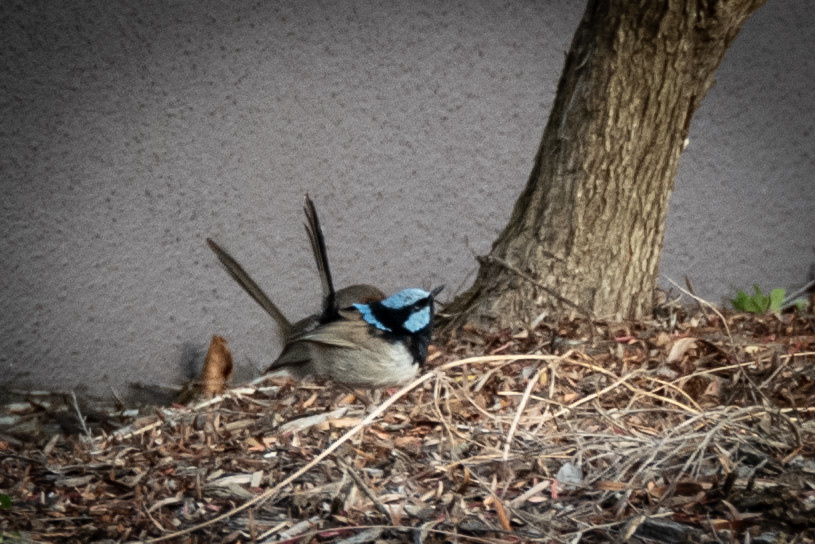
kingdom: Animalia
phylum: Chordata
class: Aves
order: Passeriformes
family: Maluridae
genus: Malurus
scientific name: Malurus cyaneus
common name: Superb fairywren
